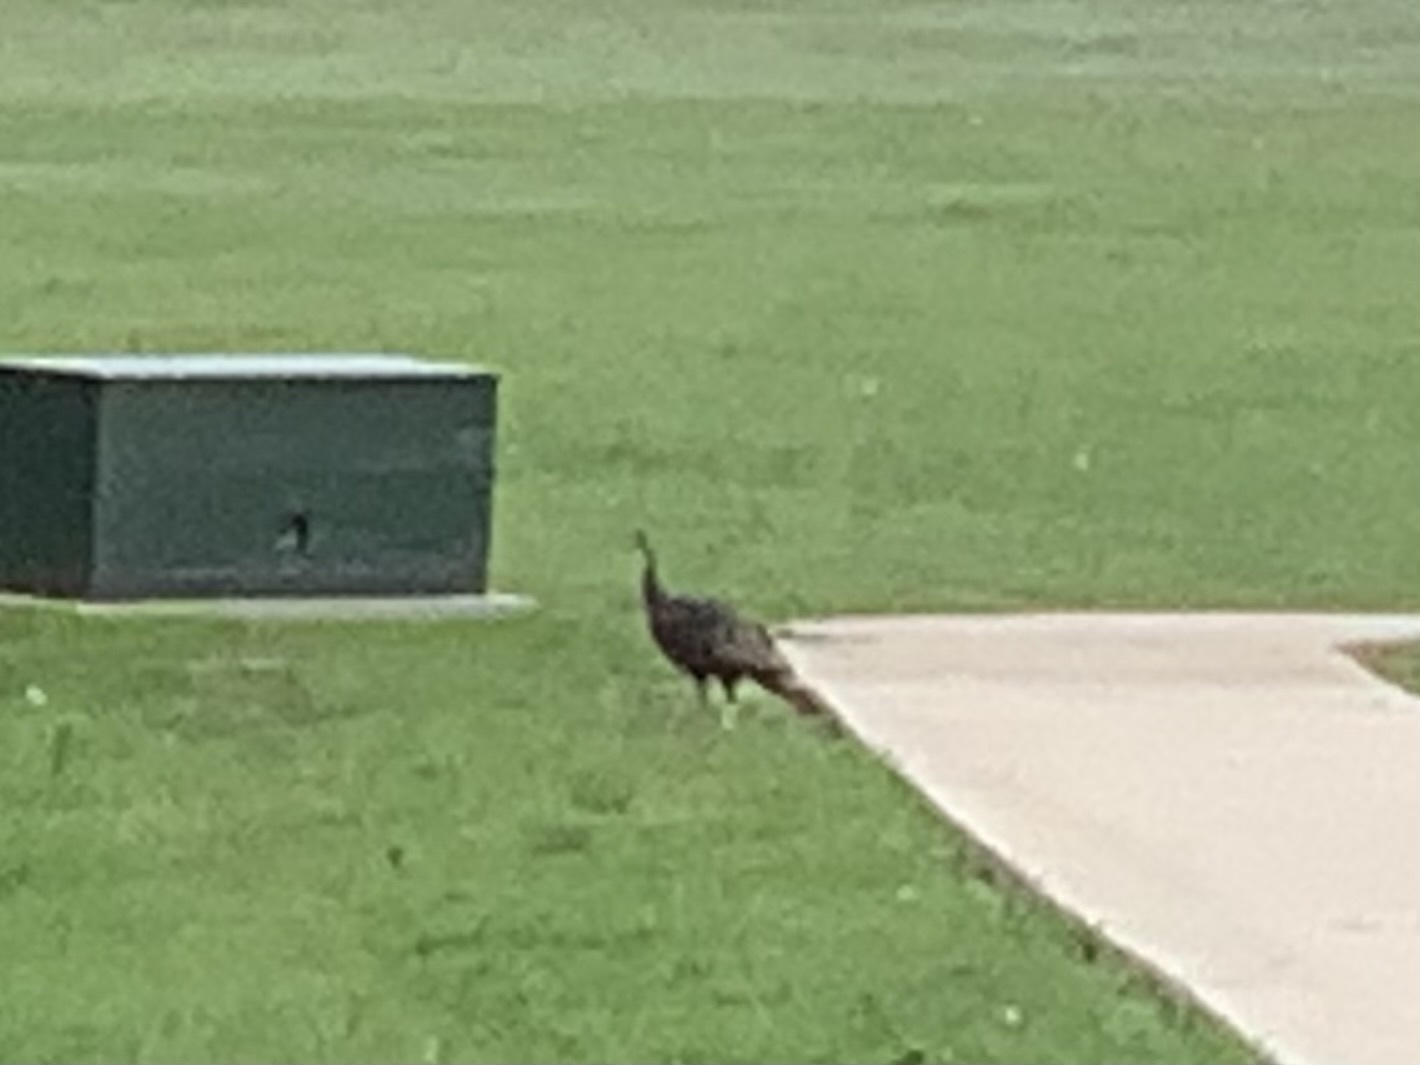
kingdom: Animalia
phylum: Chordata
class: Aves
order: Galliformes
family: Phasianidae
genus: Meleagris
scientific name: Meleagris gallopavo
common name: Wild turkey
